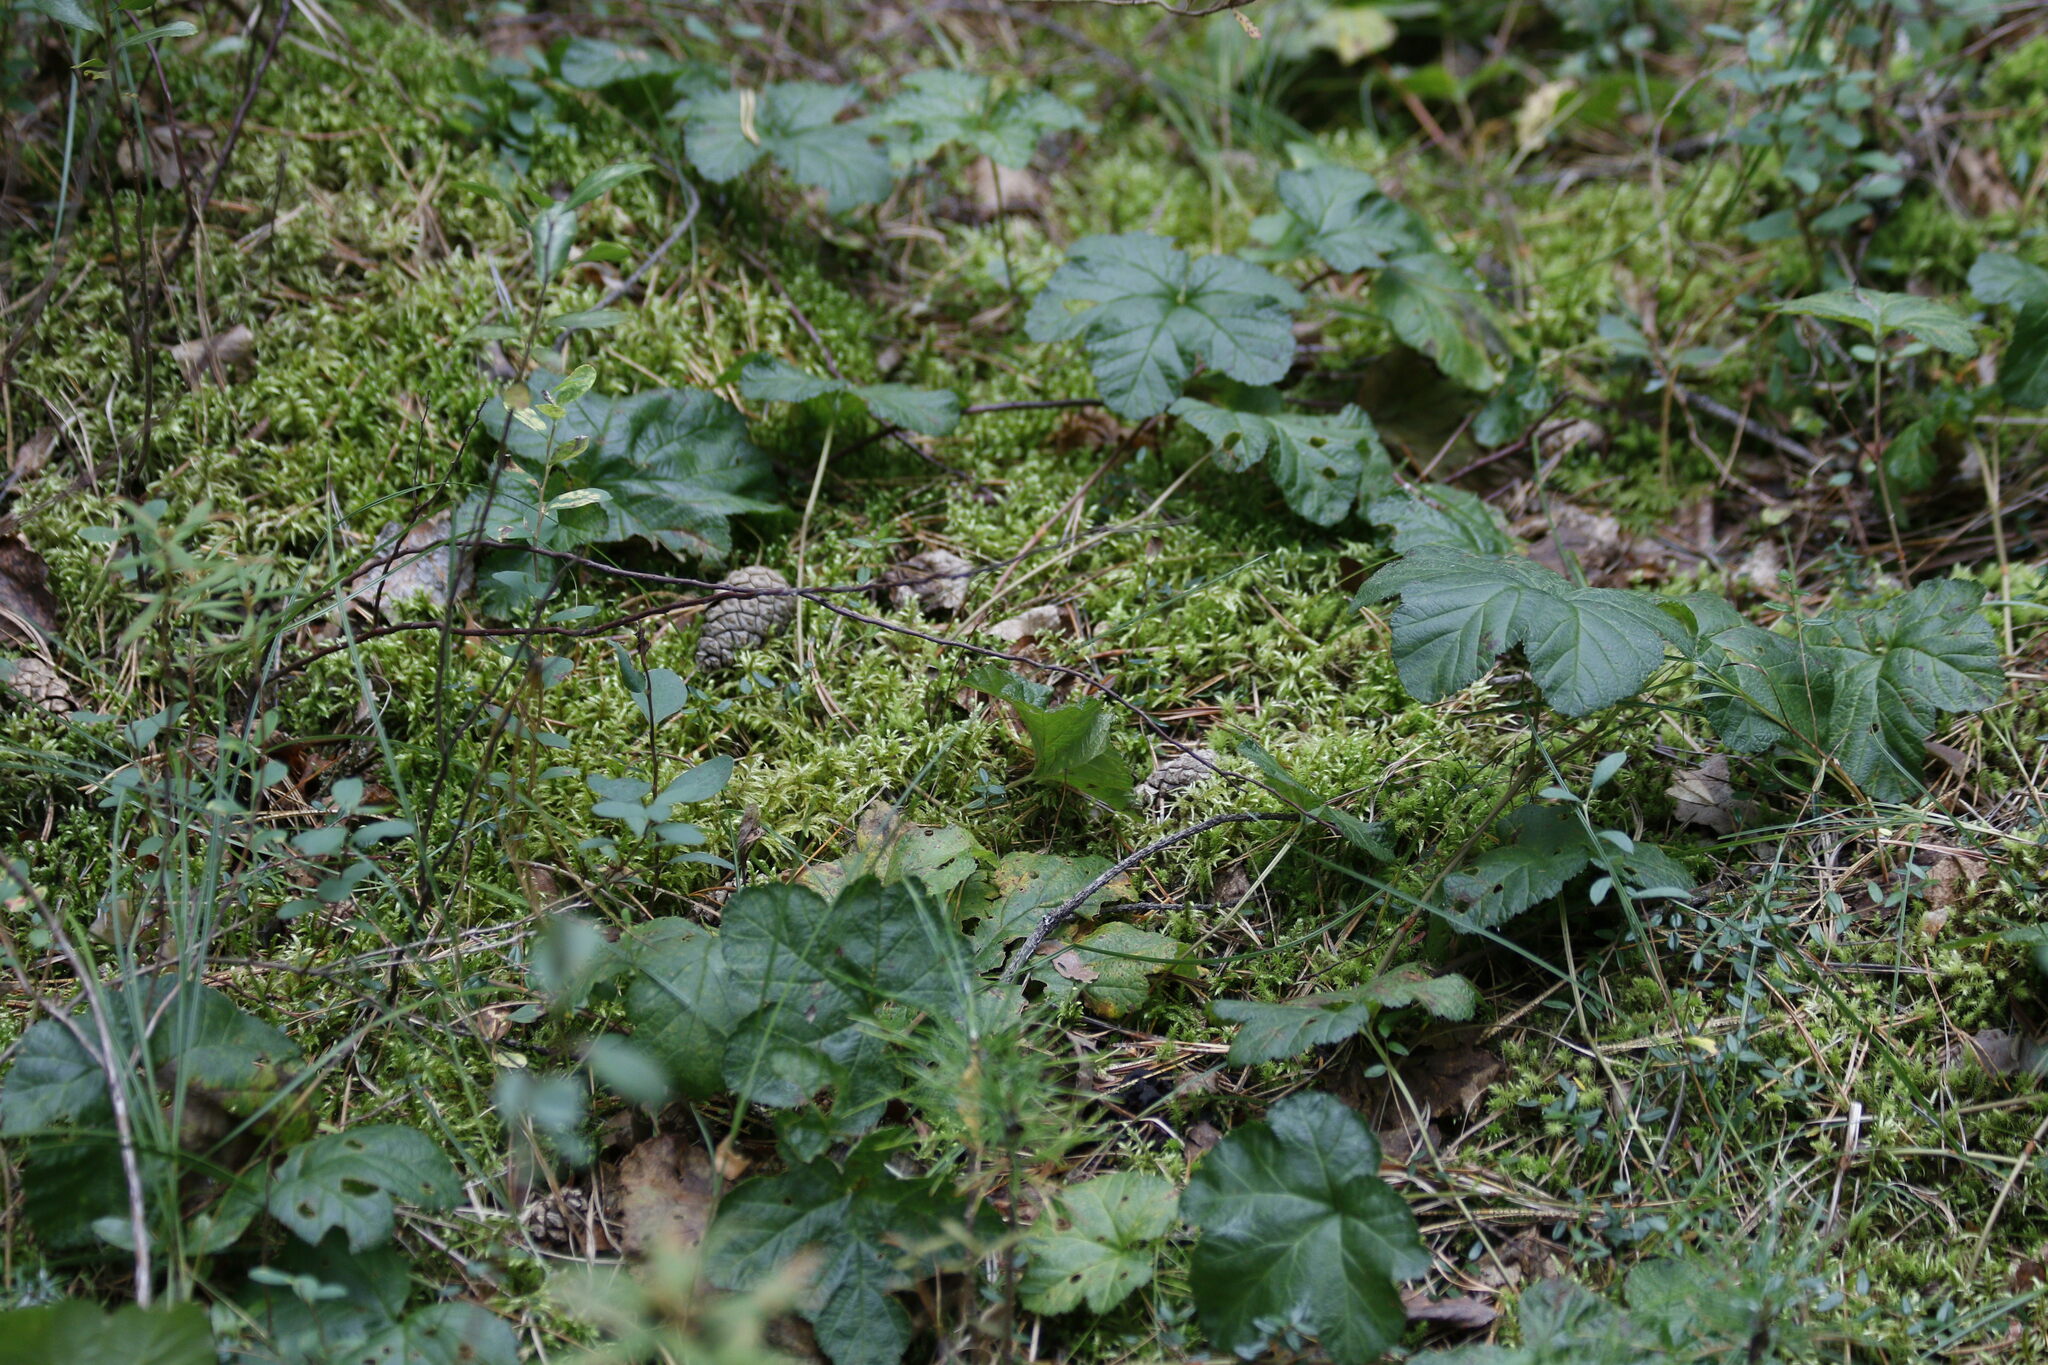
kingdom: Plantae
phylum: Tracheophyta
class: Magnoliopsida
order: Rosales
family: Rosaceae
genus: Rubus
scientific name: Rubus chamaemorus
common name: Cloudberry
